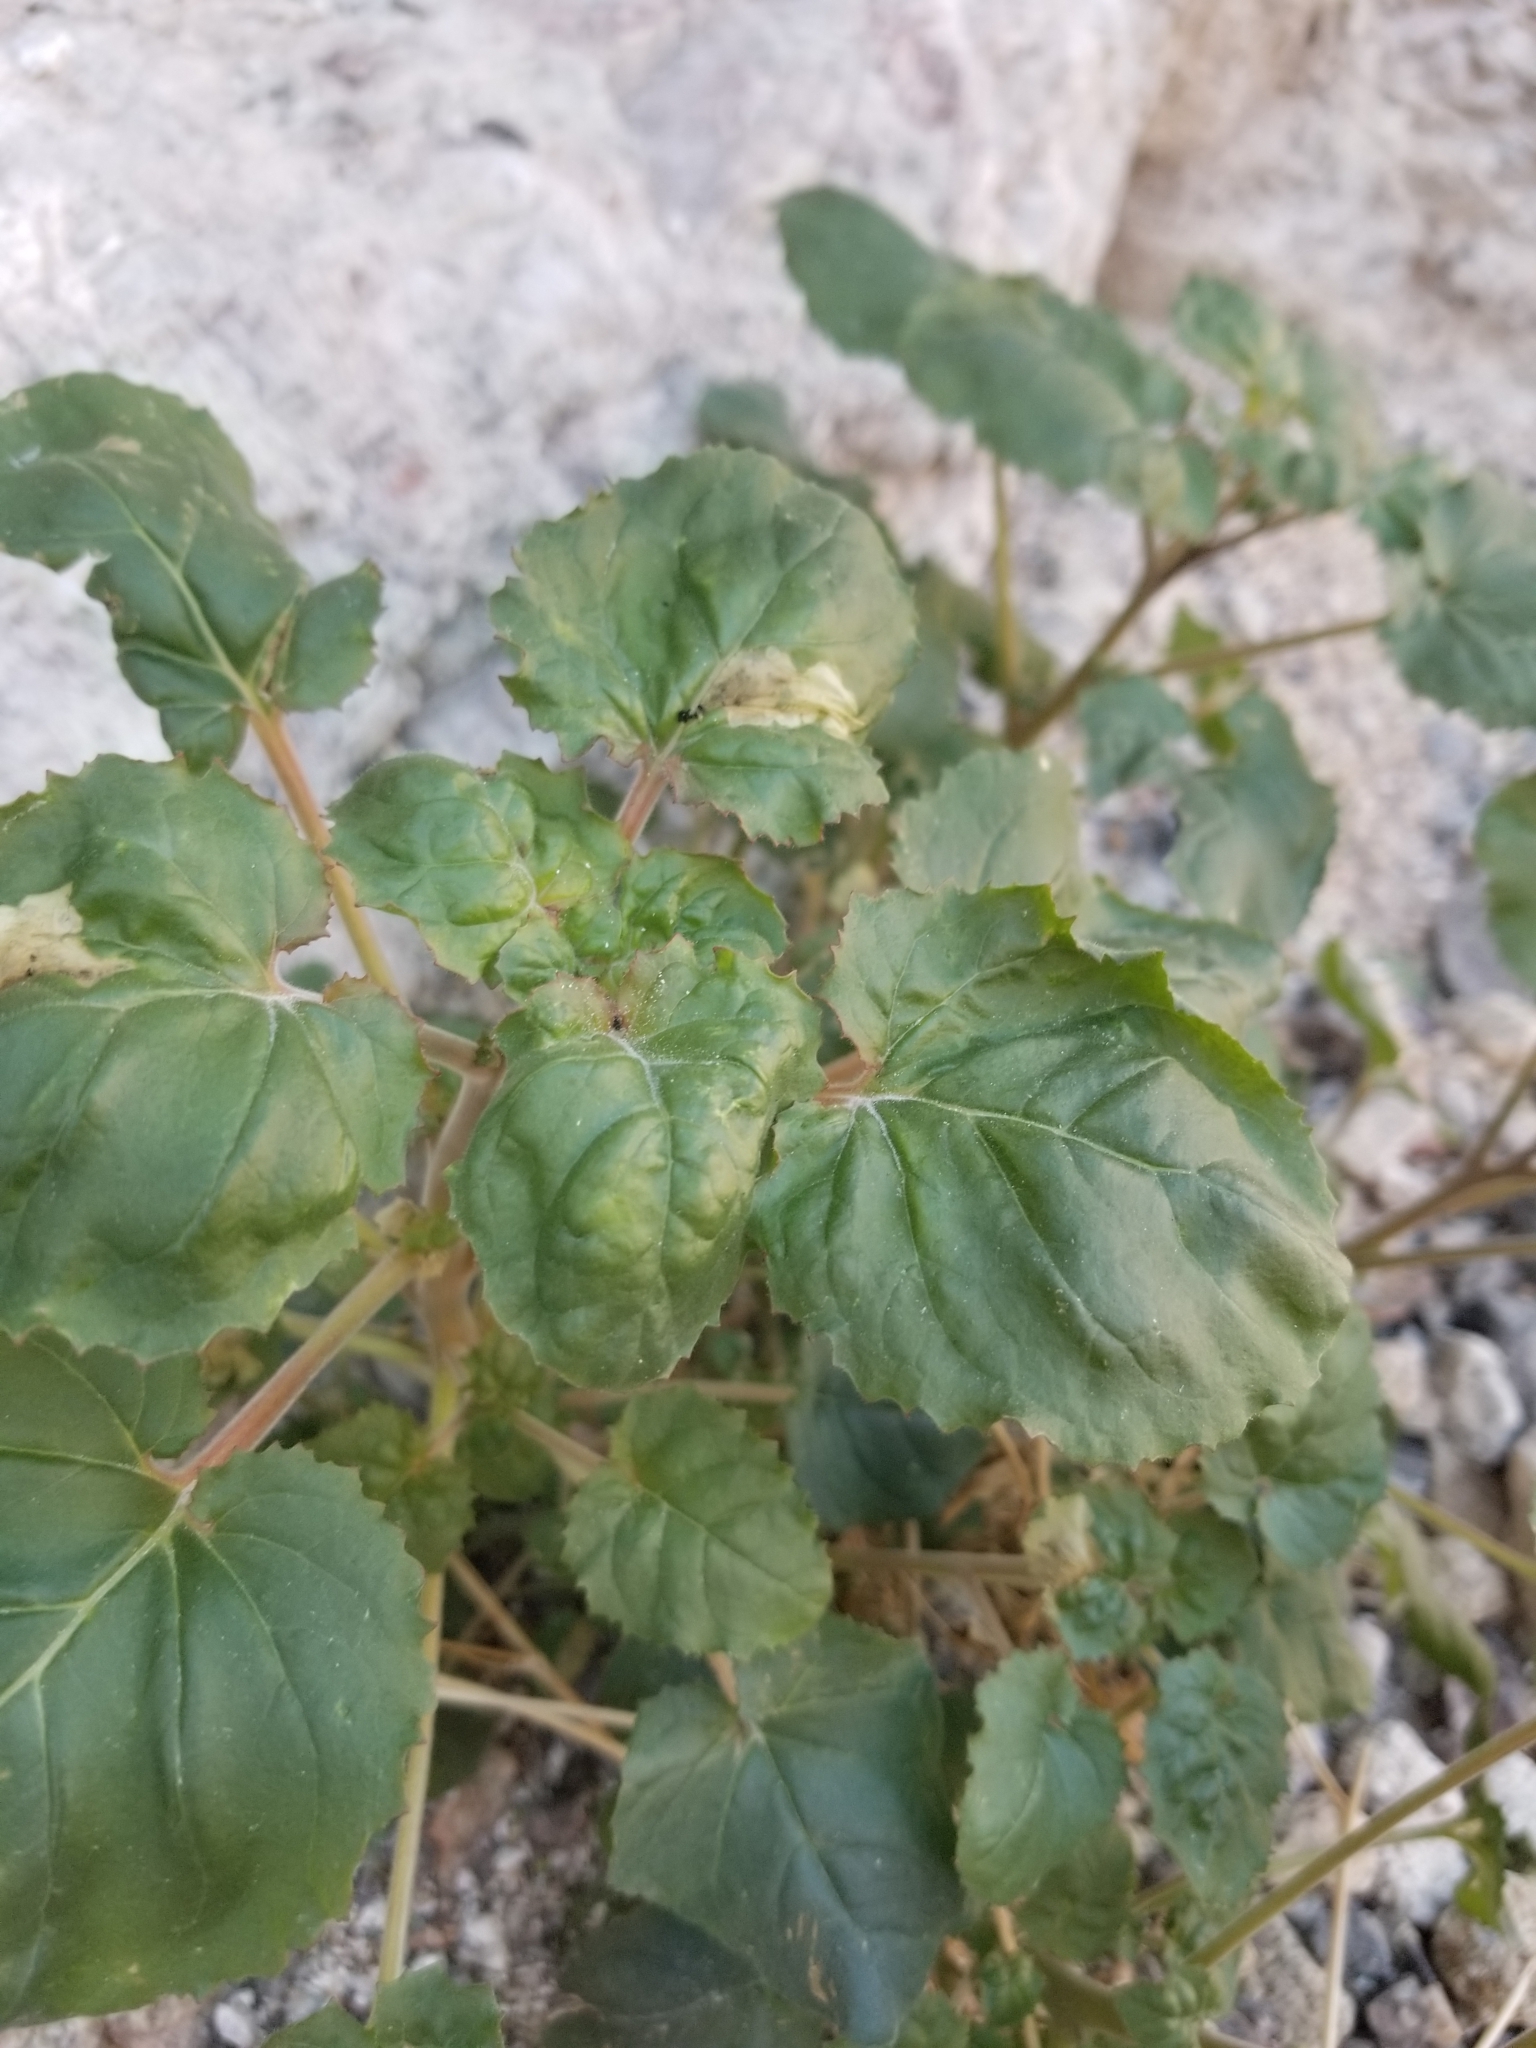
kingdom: Plantae
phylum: Tracheophyta
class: Magnoliopsida
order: Myrtales
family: Onagraceae
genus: Chylismia
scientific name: Chylismia cardiophylla
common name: Heartleaf suncup
